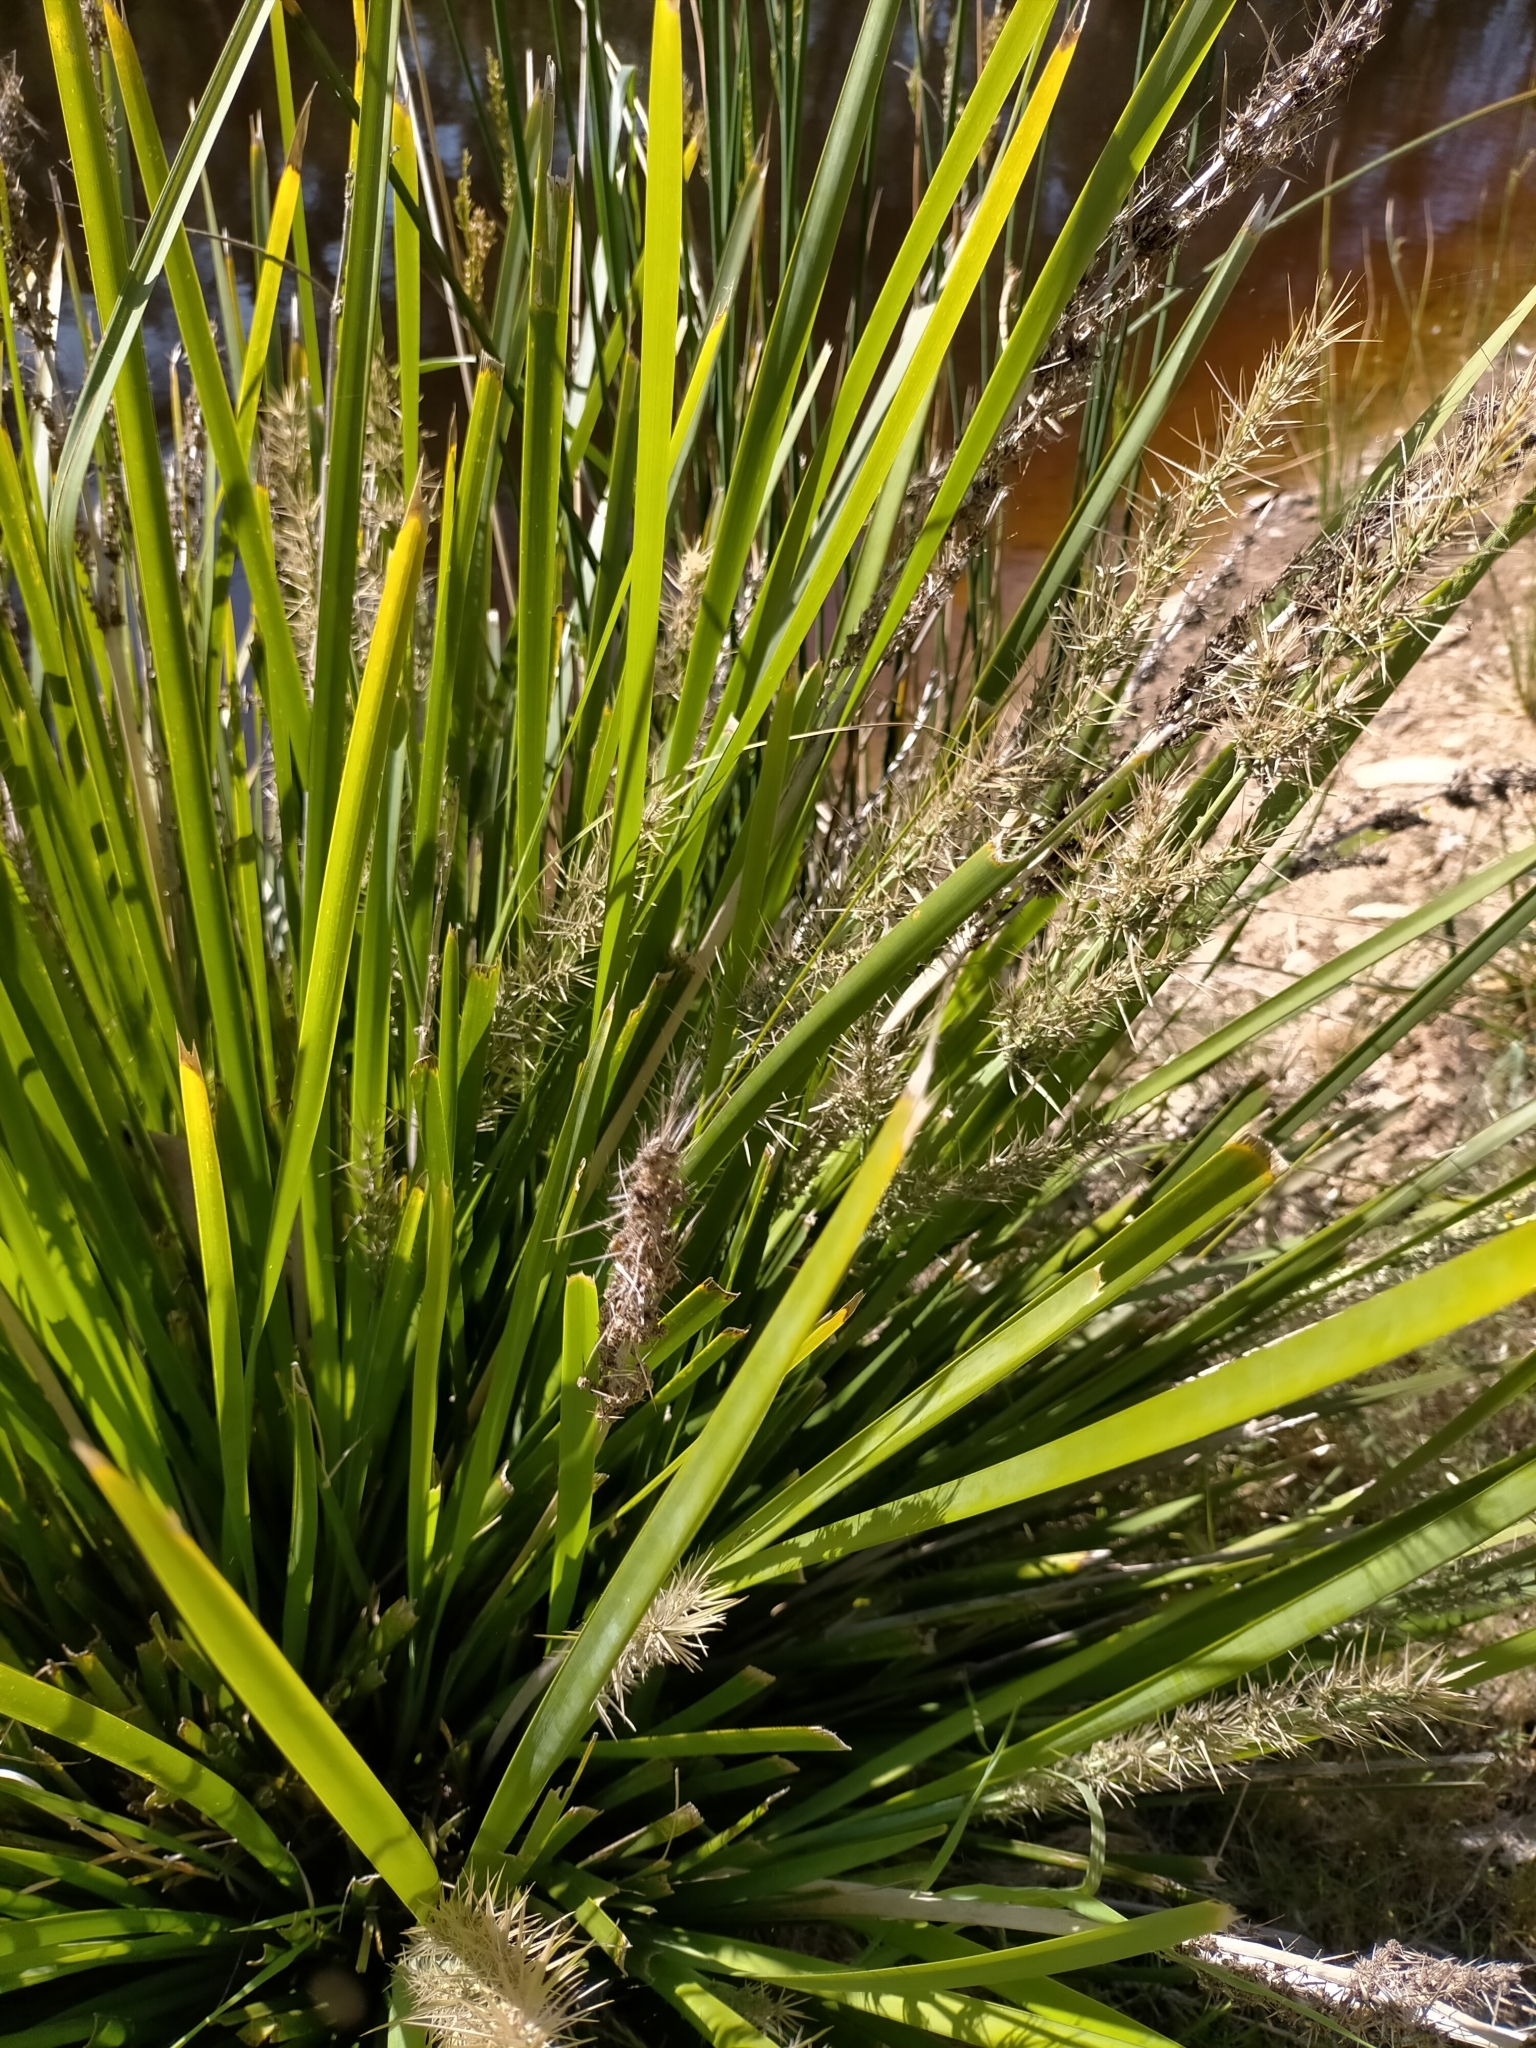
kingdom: Plantae
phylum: Tracheophyta
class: Liliopsida
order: Asparagales
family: Asparagaceae
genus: Lomandra
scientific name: Lomandra longifolia
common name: Longleaf mat-rush
